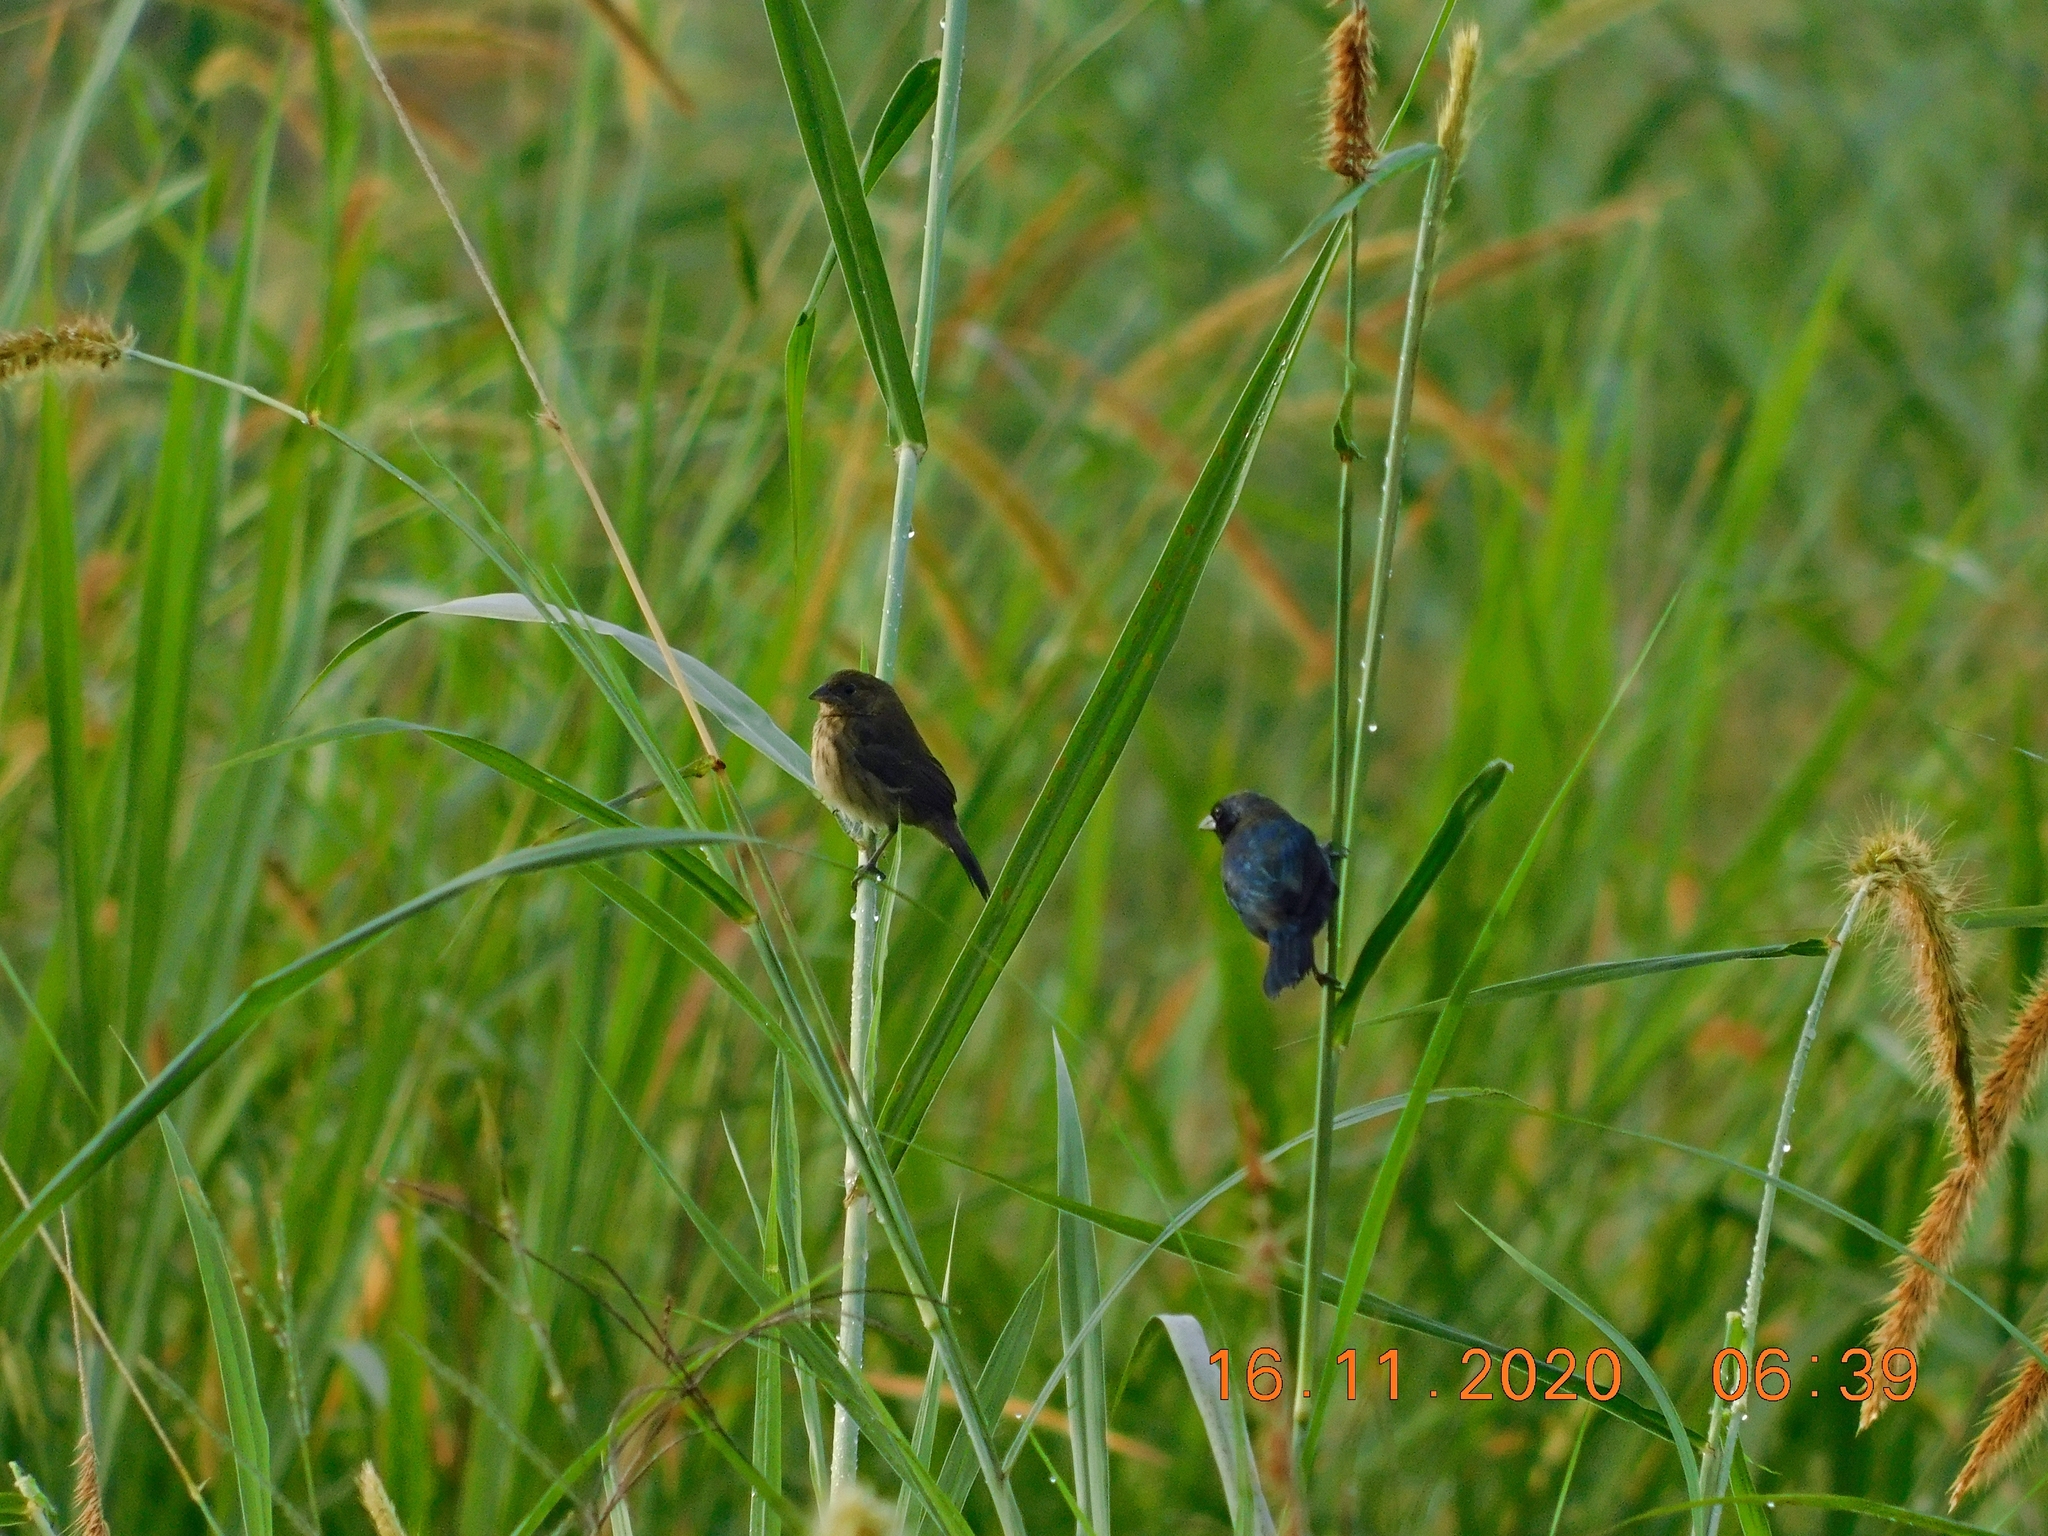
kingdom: Animalia
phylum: Chordata
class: Aves
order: Passeriformes
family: Thraupidae
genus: Volatinia
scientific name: Volatinia jacarina
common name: Blue-black grassquit
